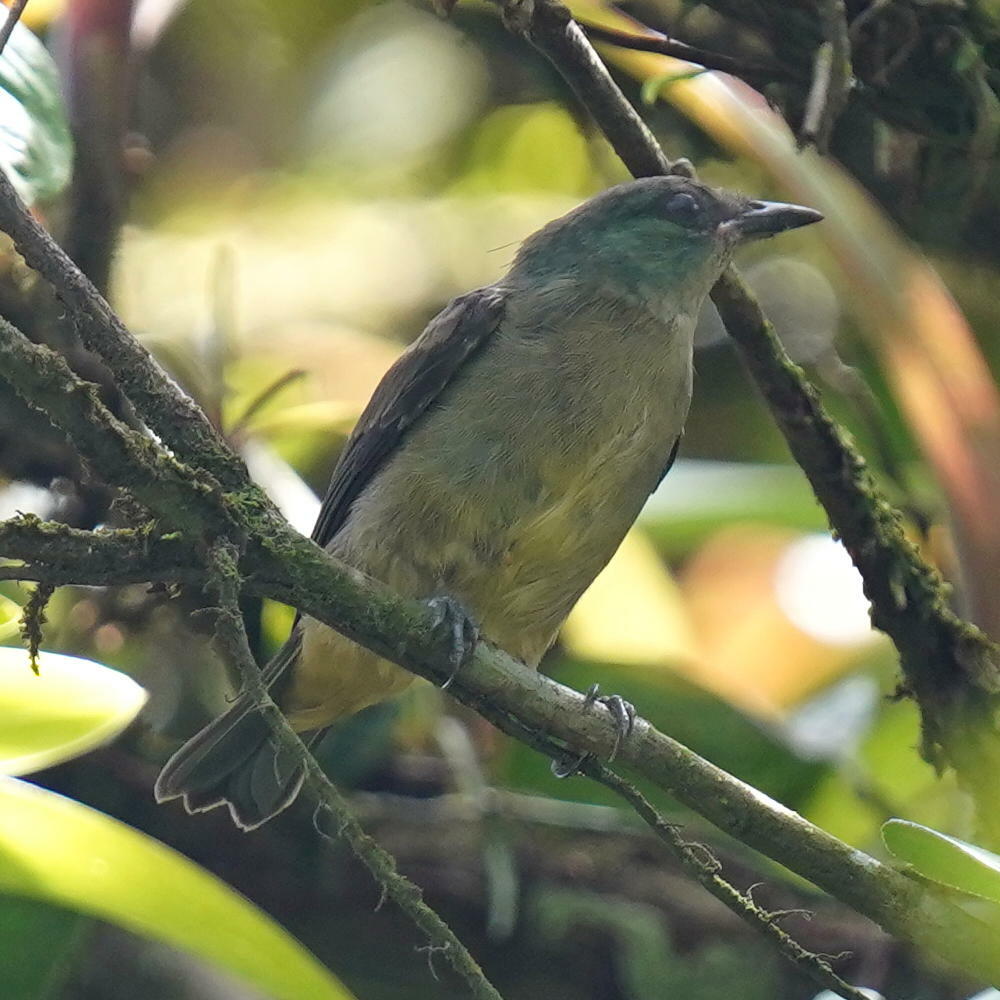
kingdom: Animalia
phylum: Chordata
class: Aves
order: Passeriformes
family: Thraupidae
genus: Dacnis
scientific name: Dacnis venusta
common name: Scarlet-thighed dacnis
